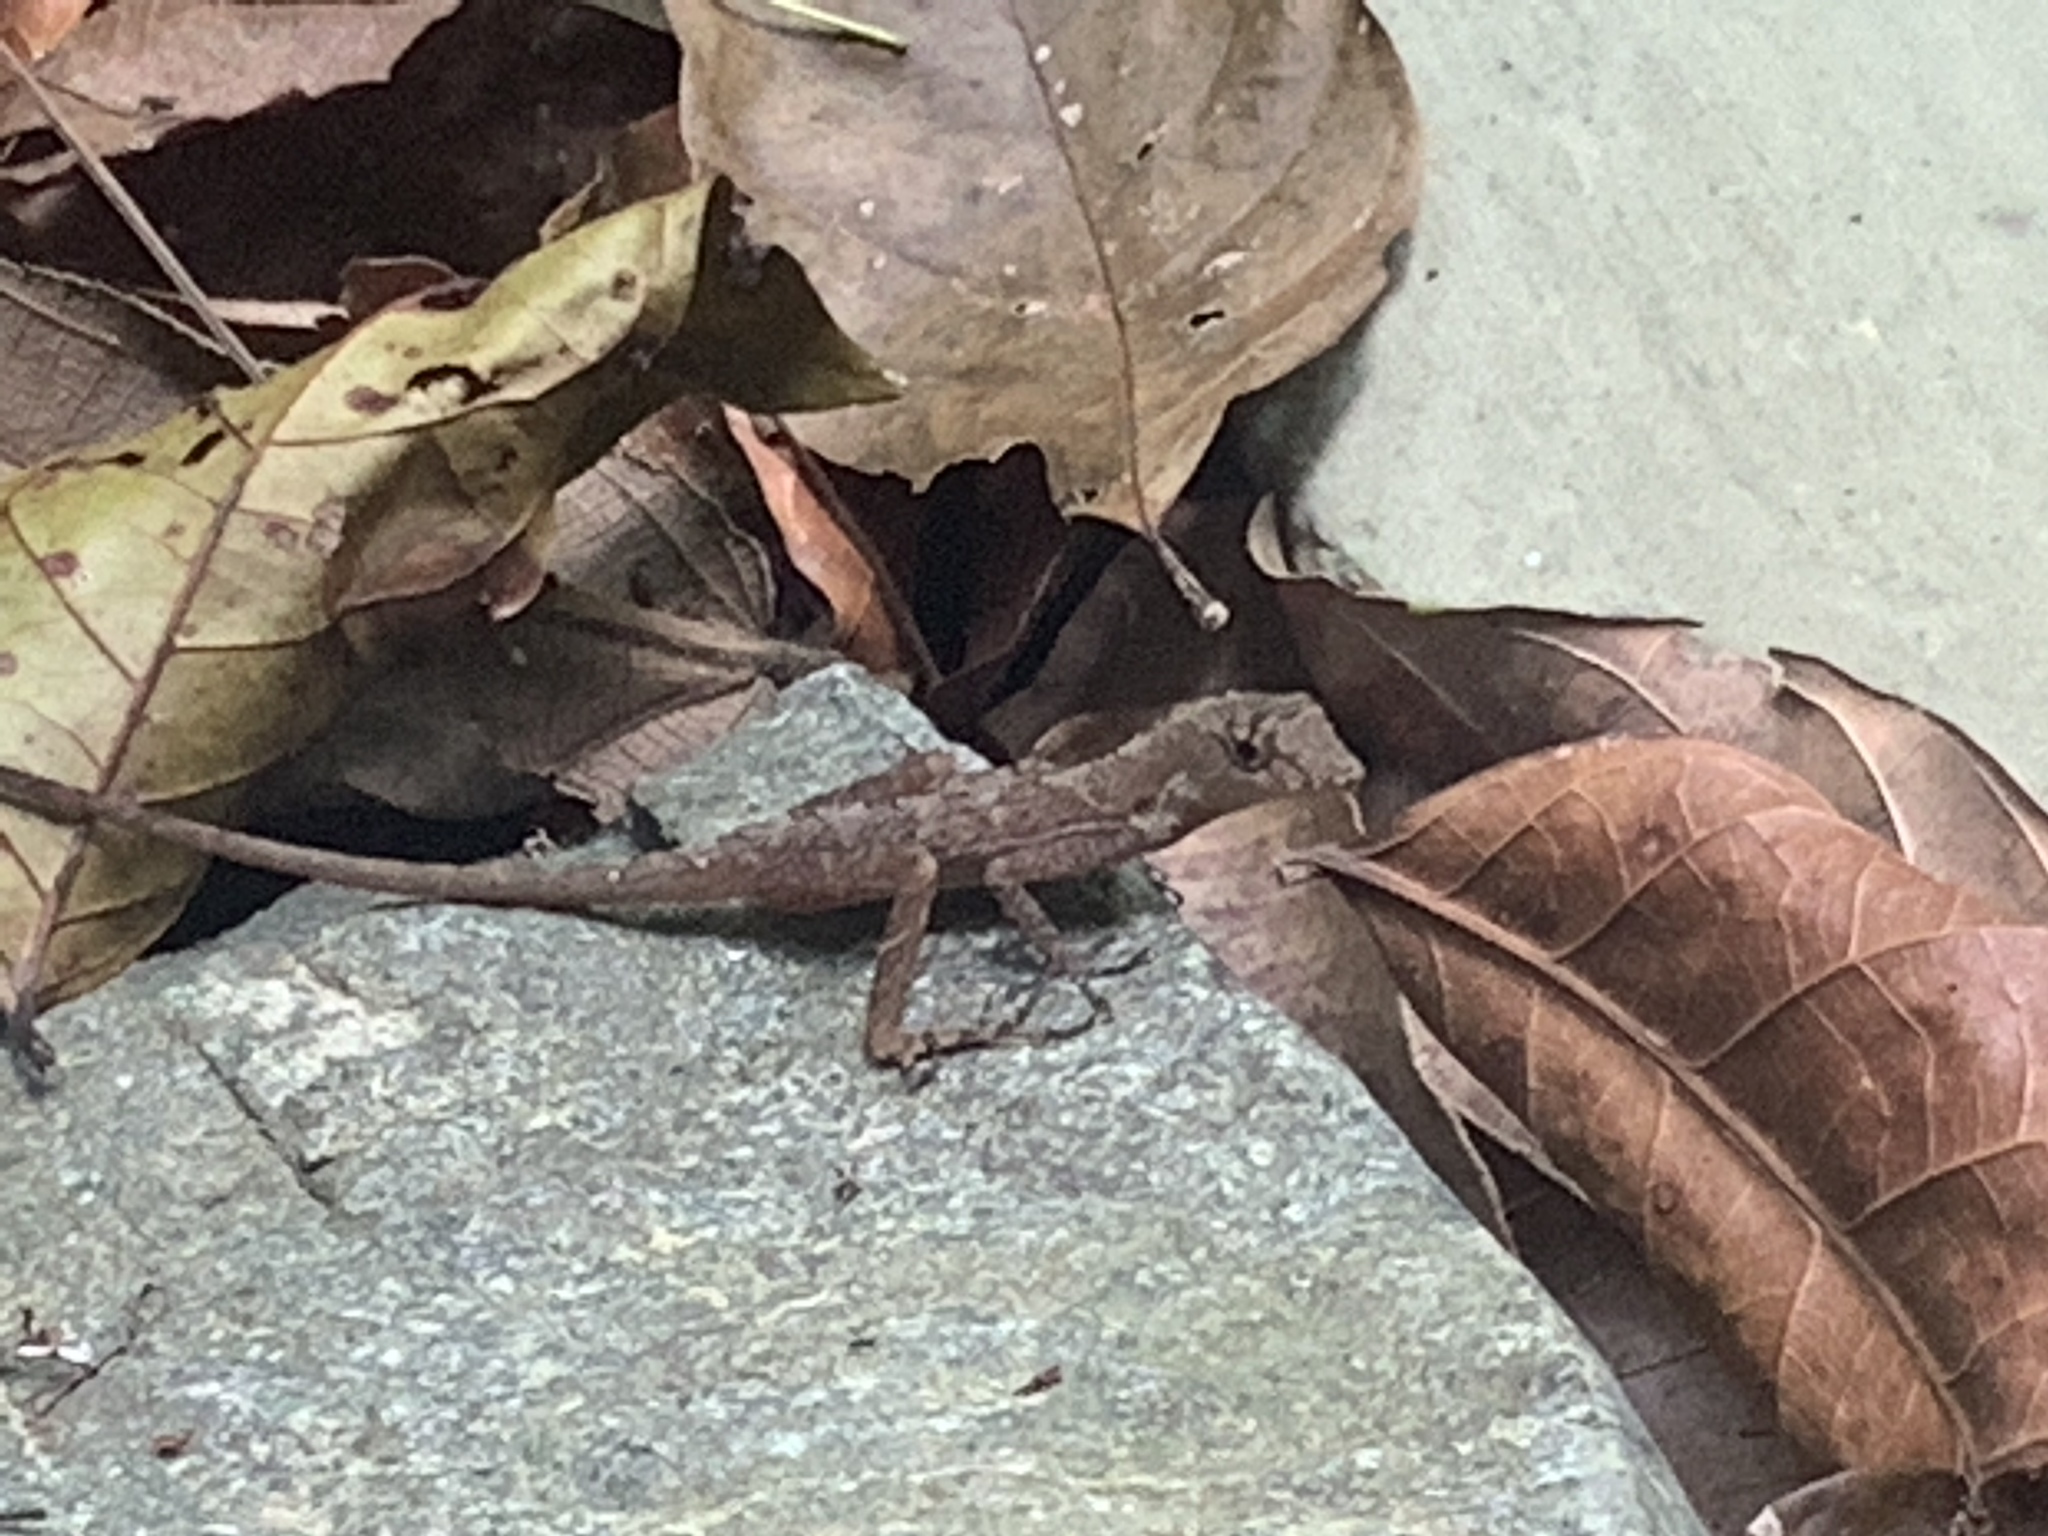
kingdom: Animalia
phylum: Chordata
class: Squamata
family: Dactyloidae
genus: Anolis
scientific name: Anolis osa
